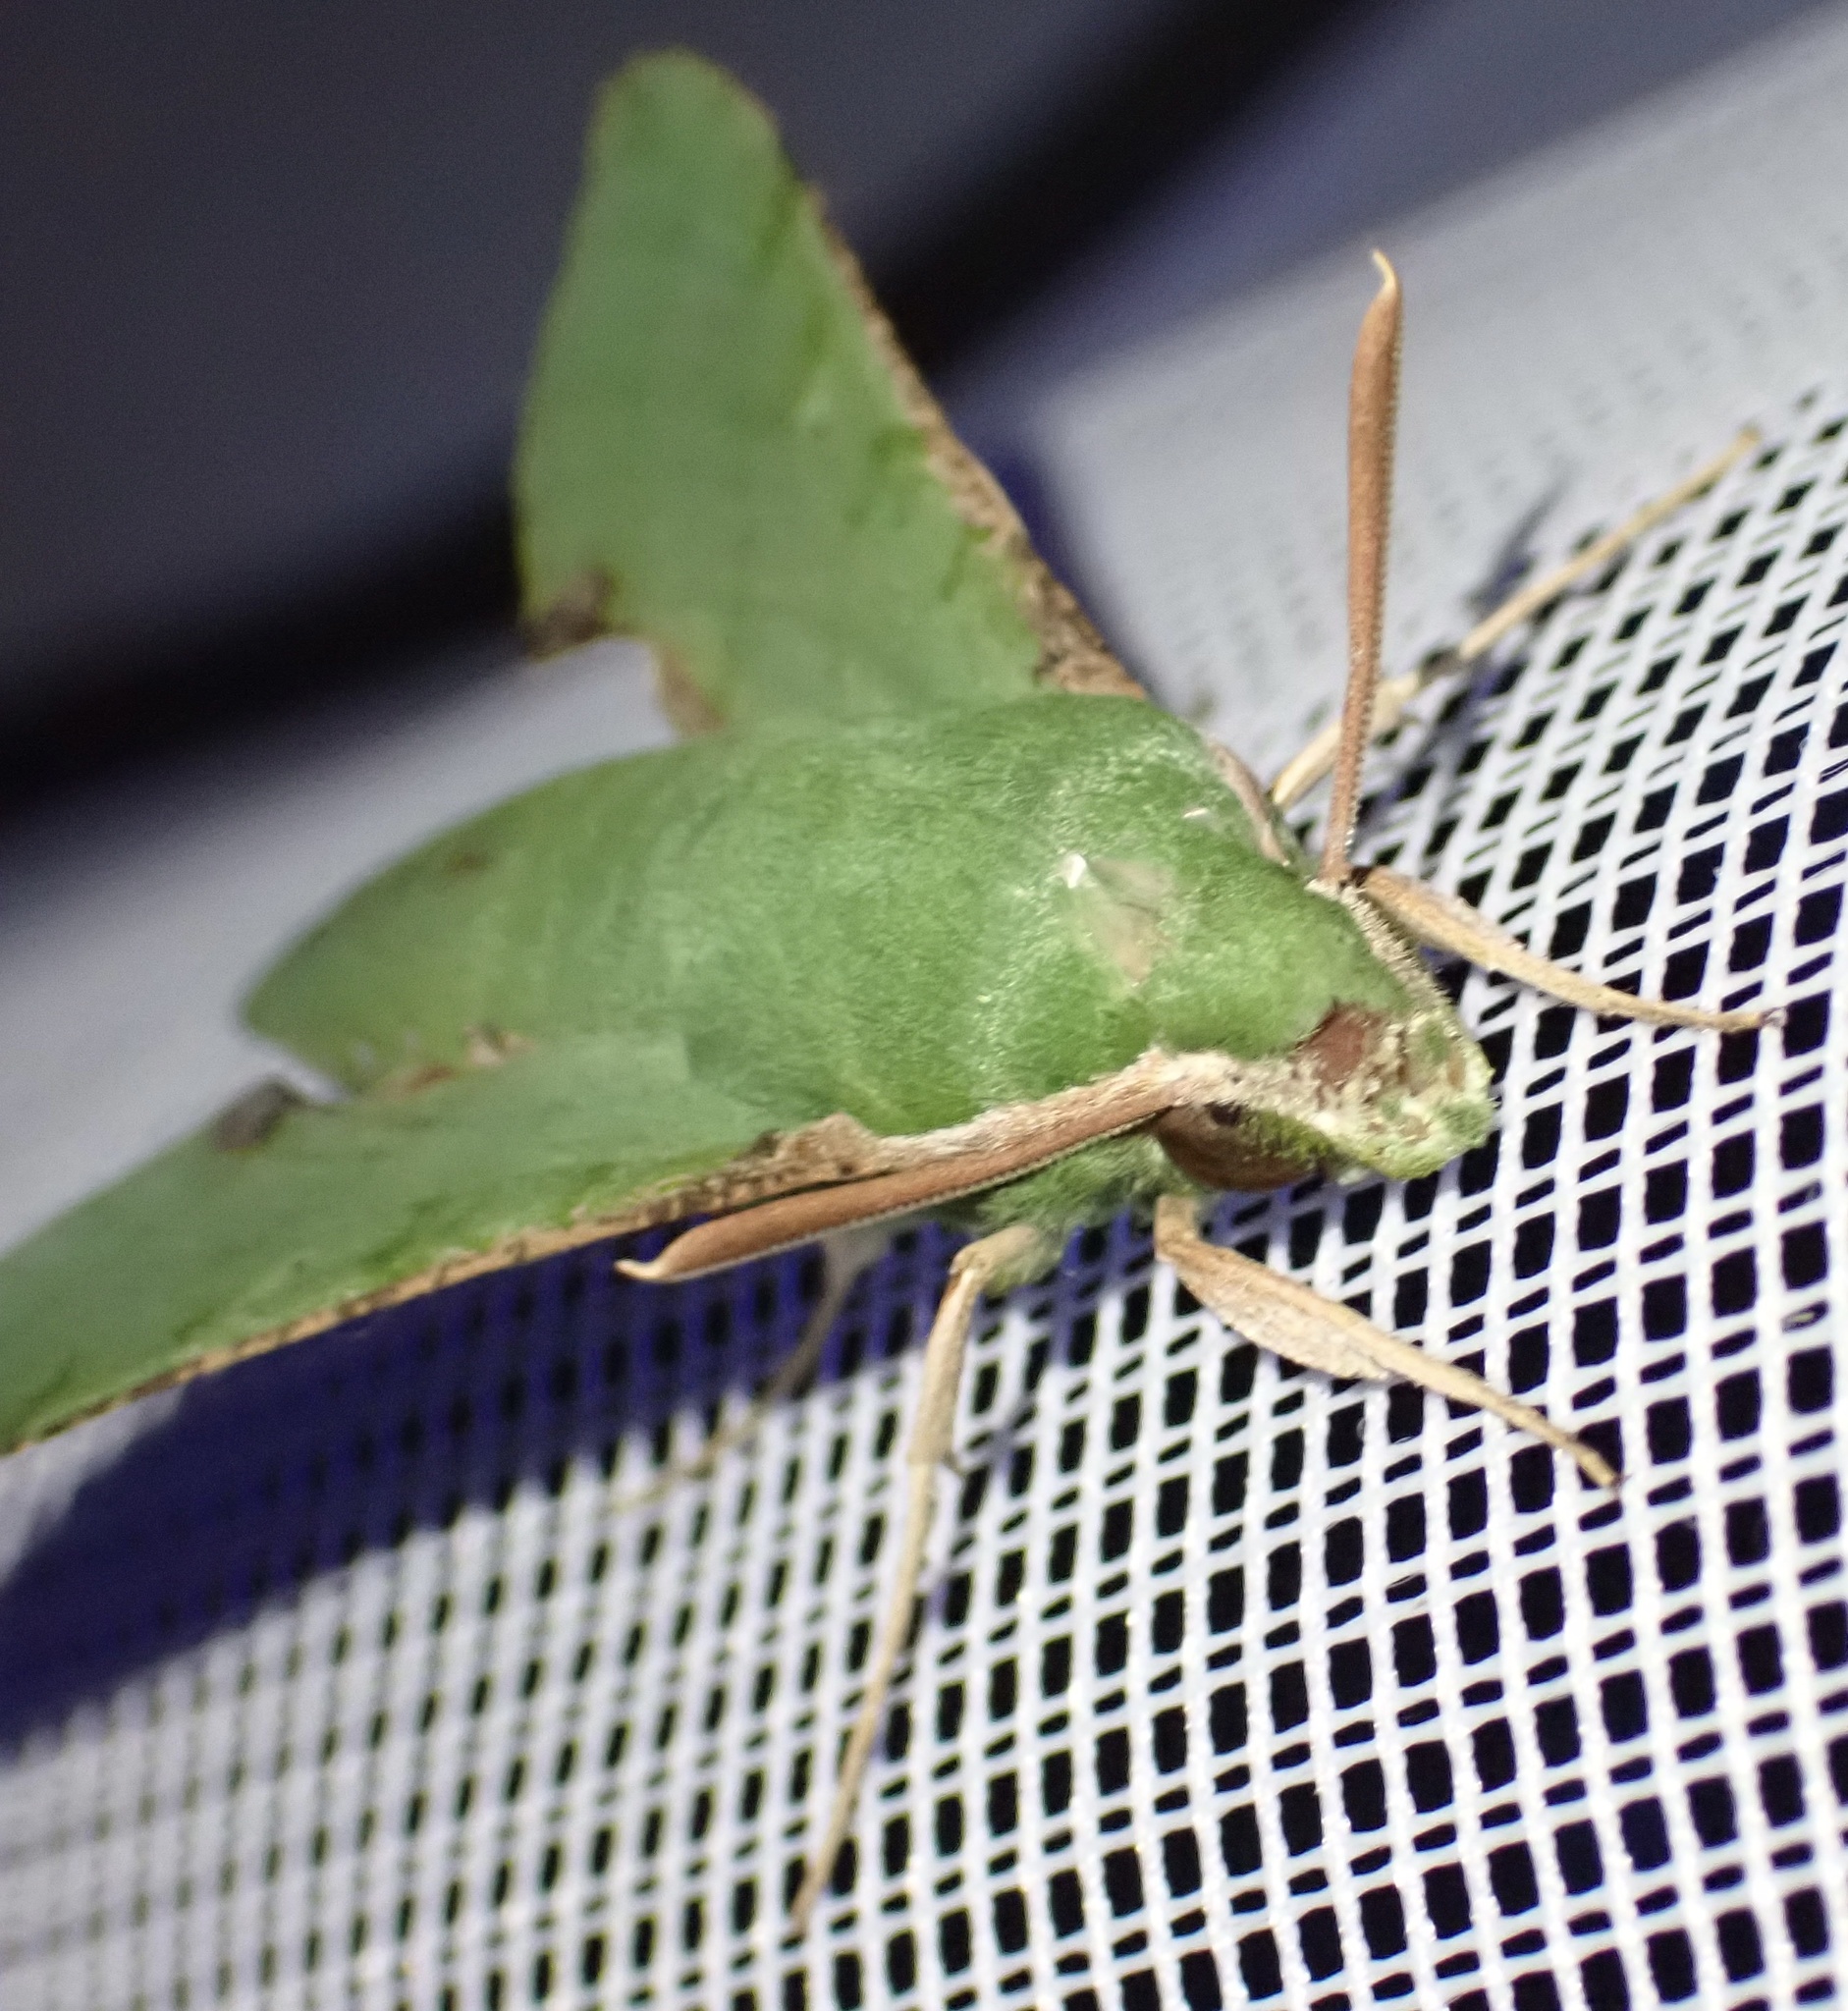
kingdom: Animalia
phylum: Arthropoda
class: Insecta
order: Lepidoptera
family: Sphingidae
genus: Basiothia
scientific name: Basiothia medea
